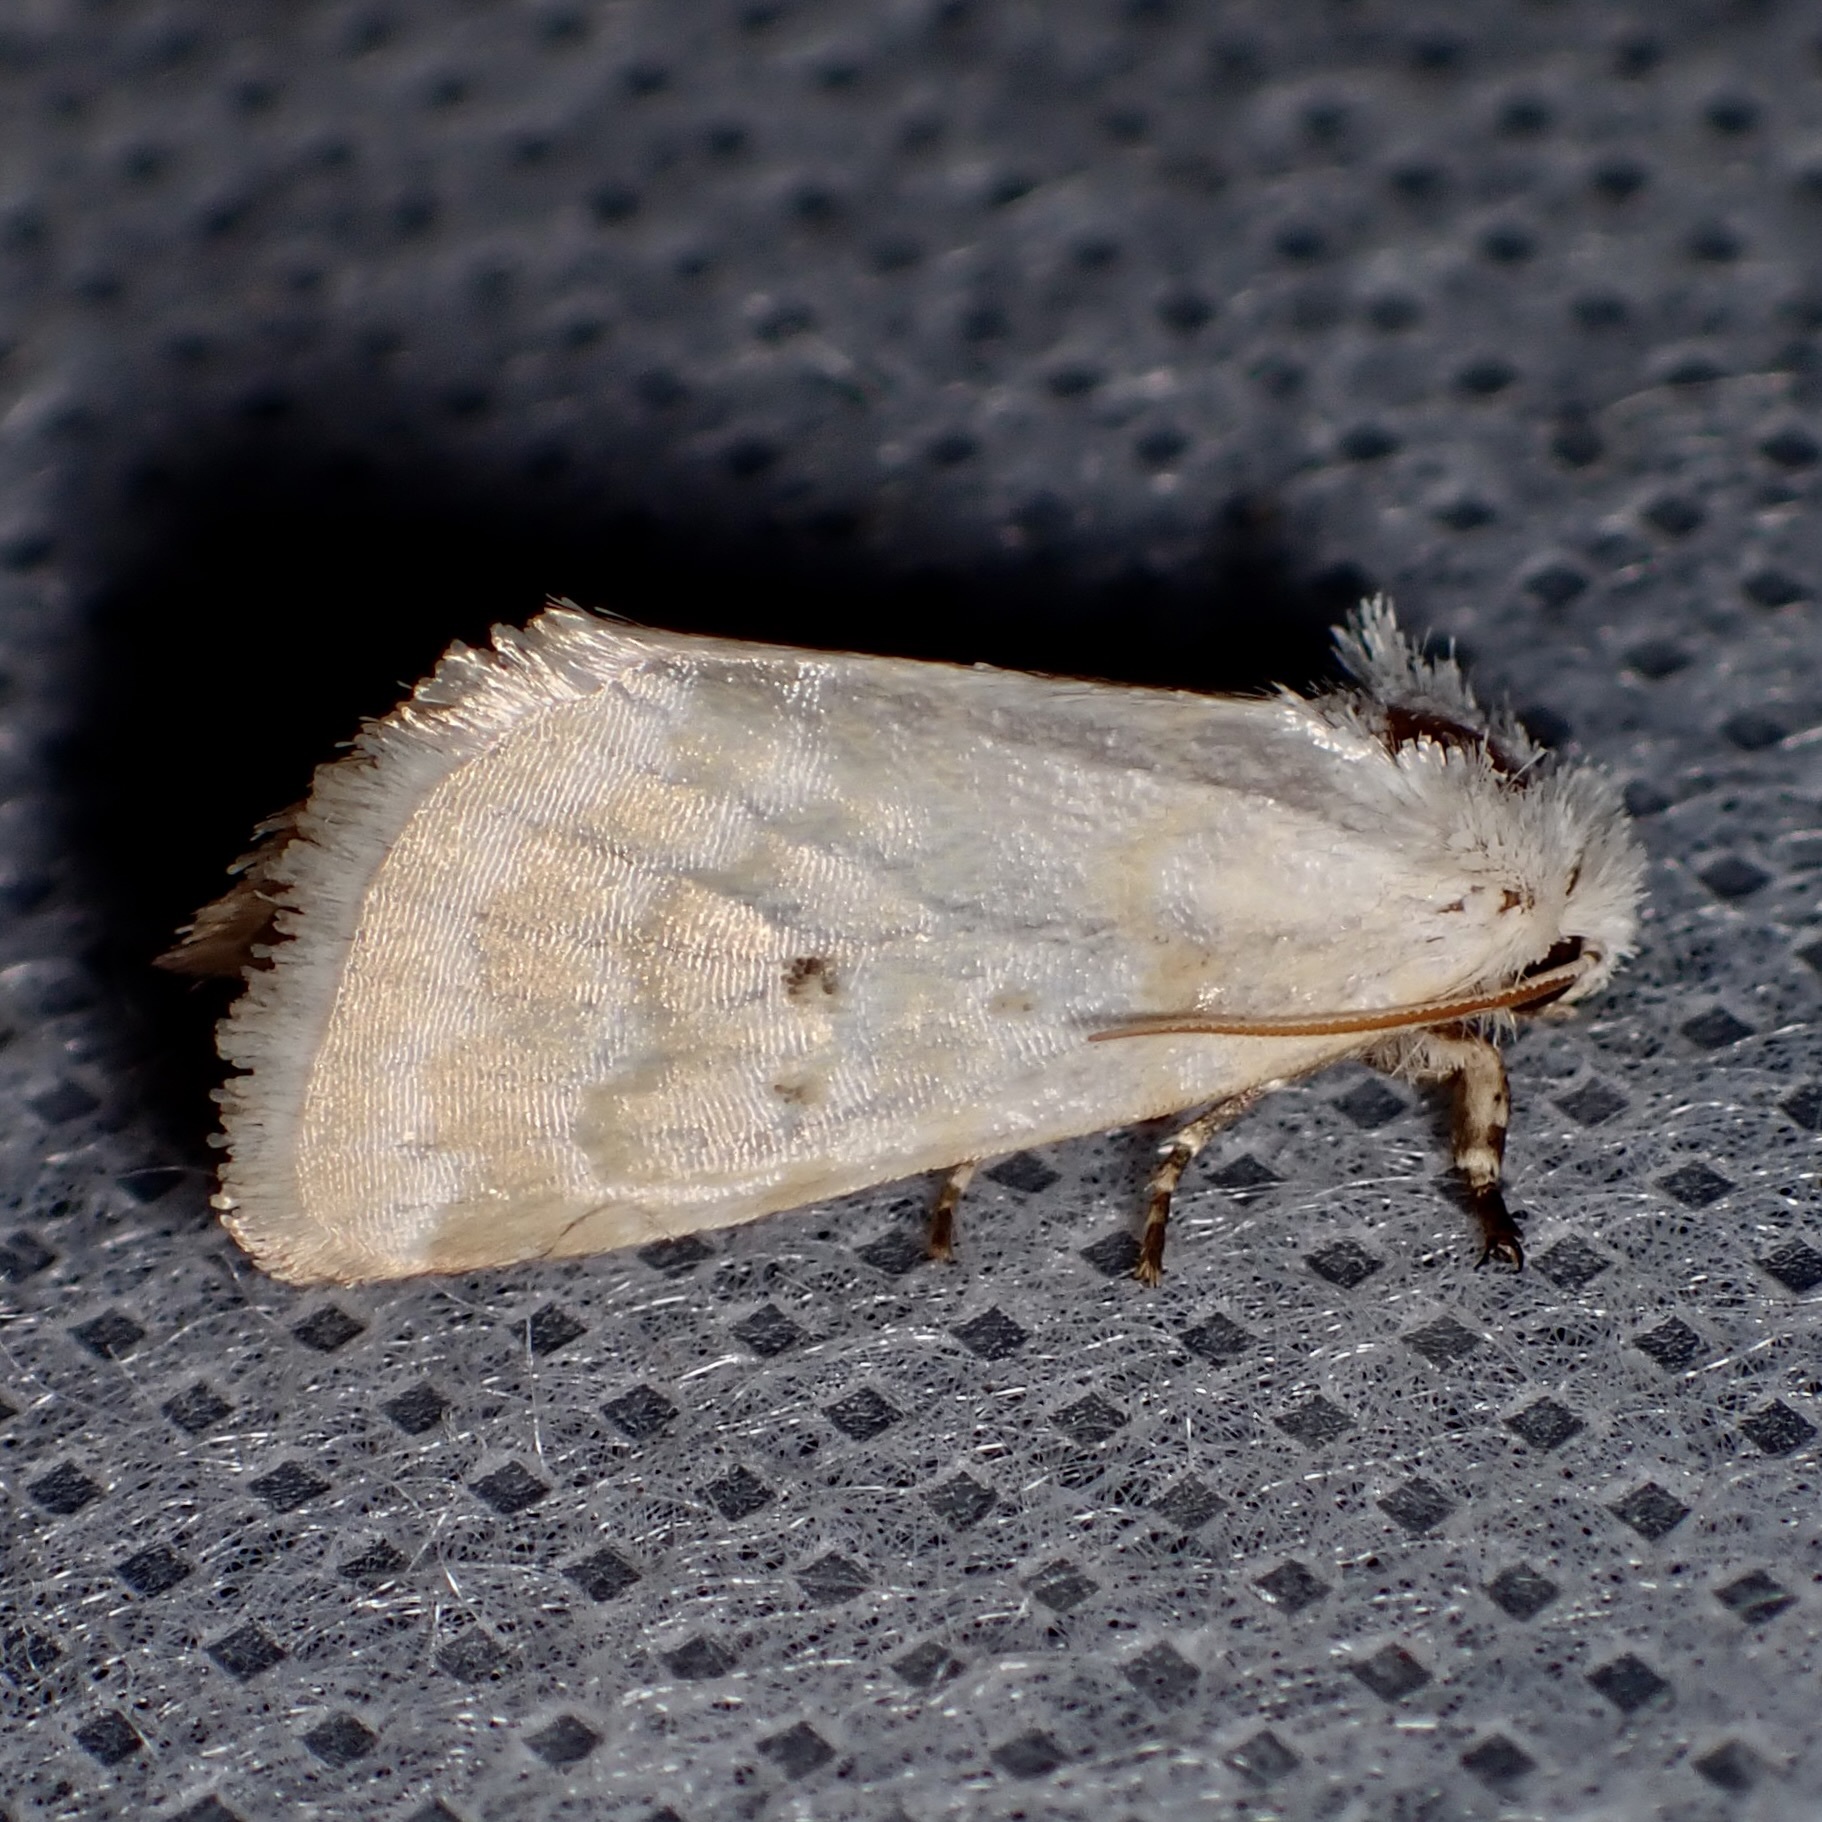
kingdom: Animalia
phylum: Arthropoda
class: Insecta
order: Lepidoptera
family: Noctuidae
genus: Lythrodes
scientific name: Lythrodes tripuncta
